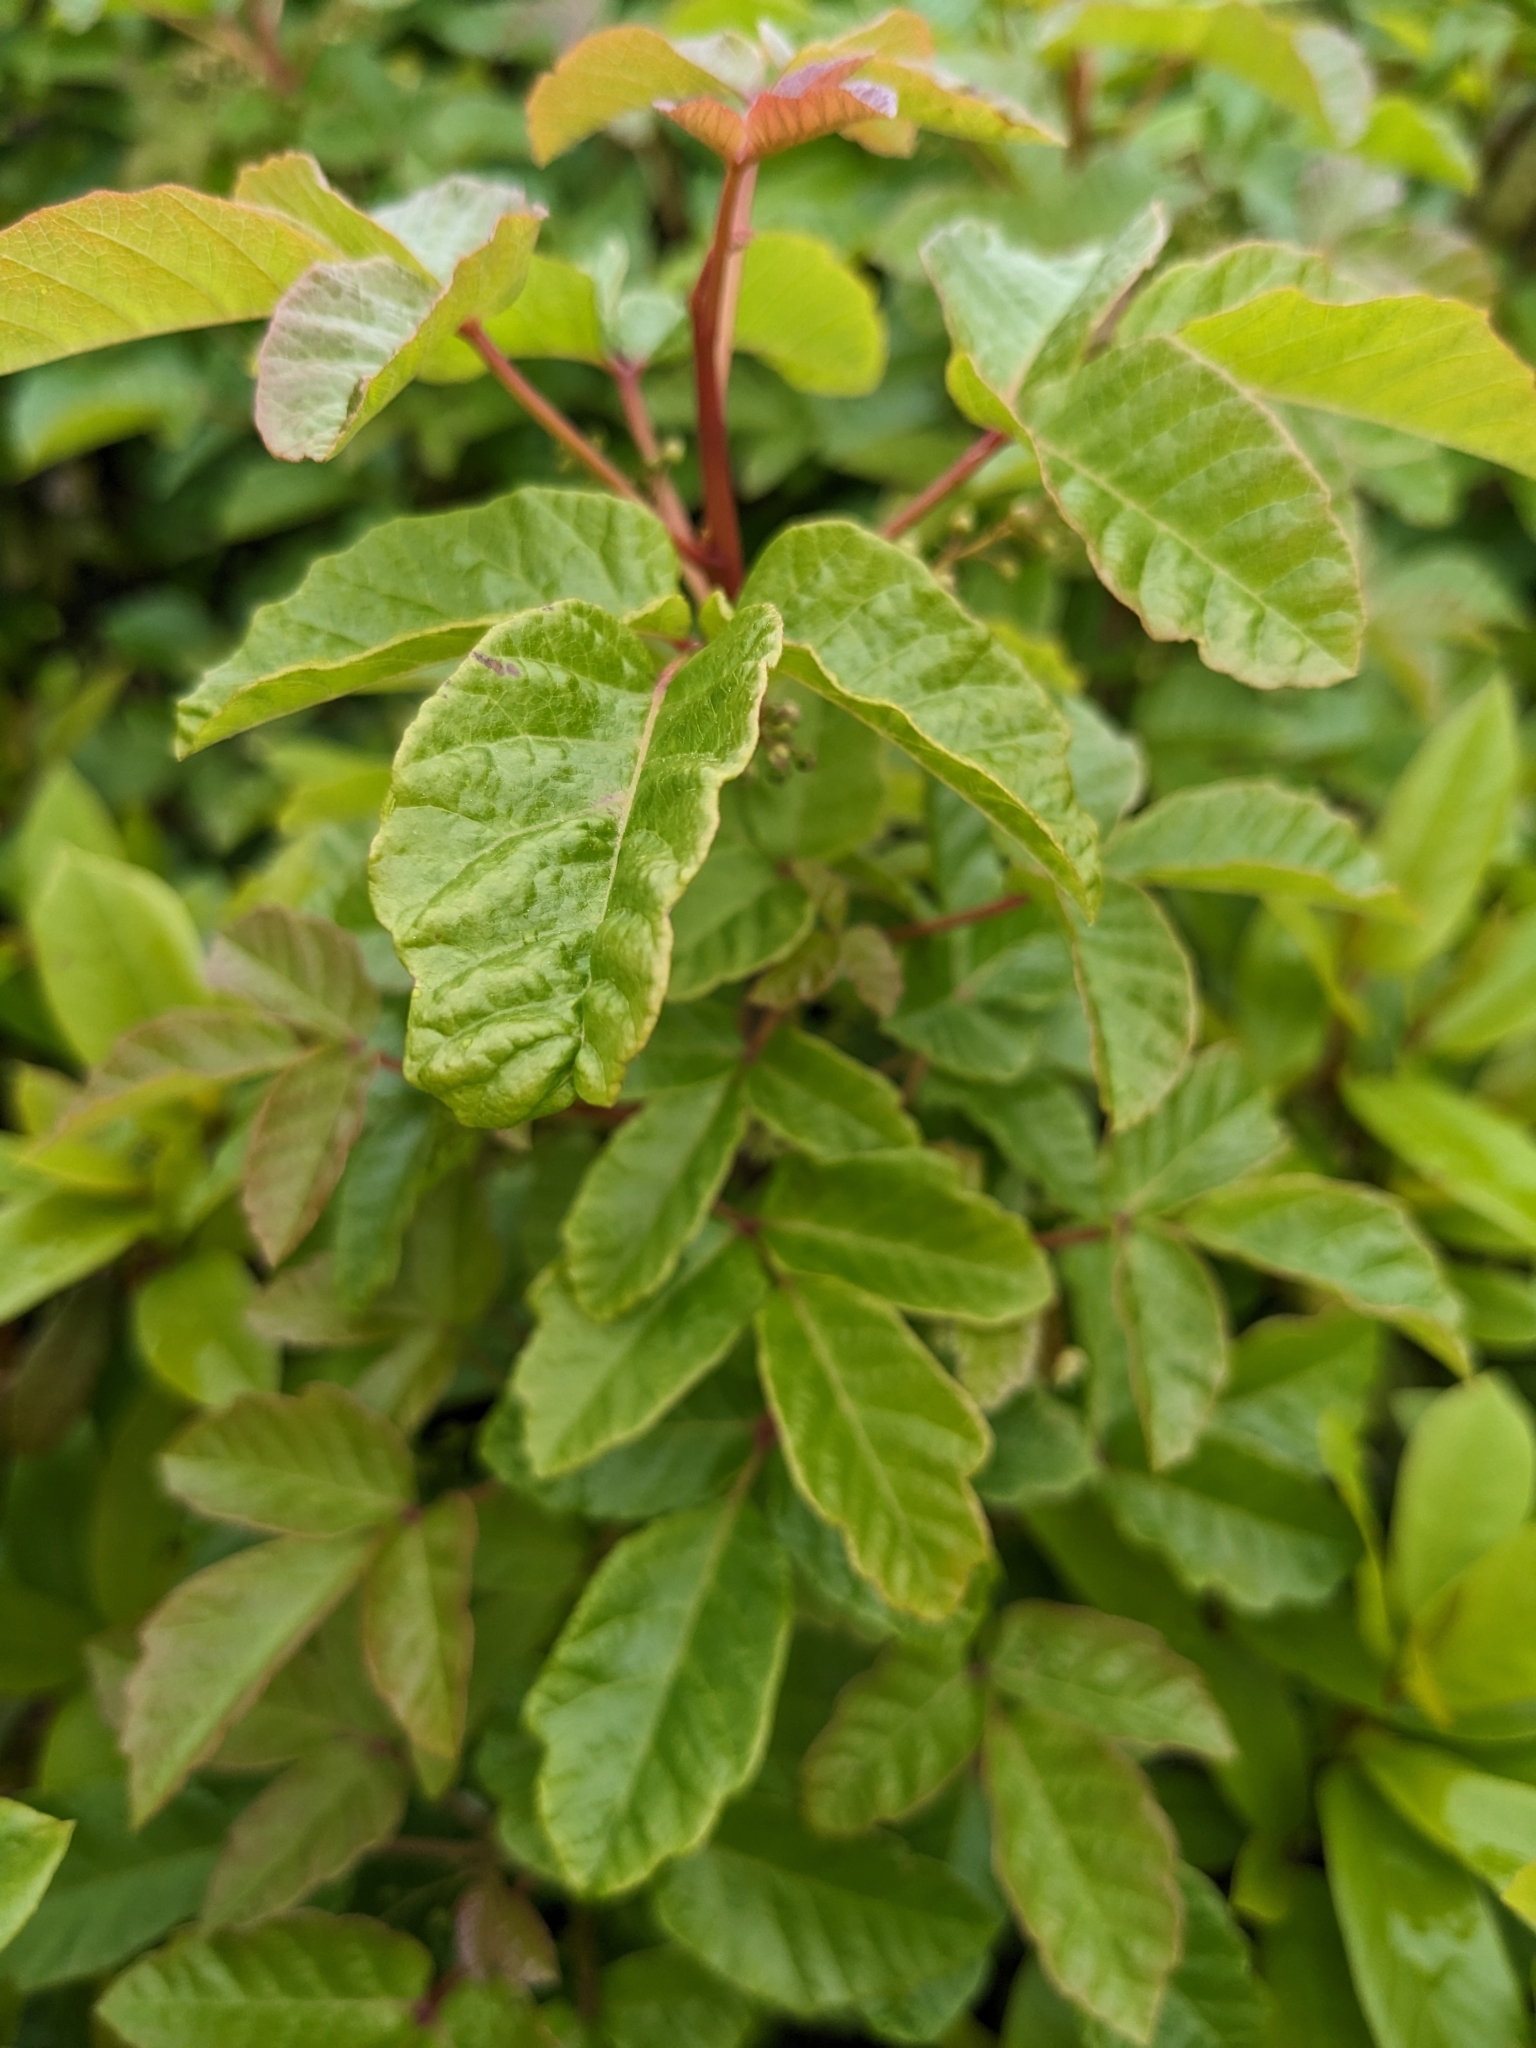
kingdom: Plantae
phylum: Tracheophyta
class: Magnoliopsida
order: Sapindales
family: Anacardiaceae
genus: Toxicodendron
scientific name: Toxicodendron diversilobum
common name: Pacific poison-oak
